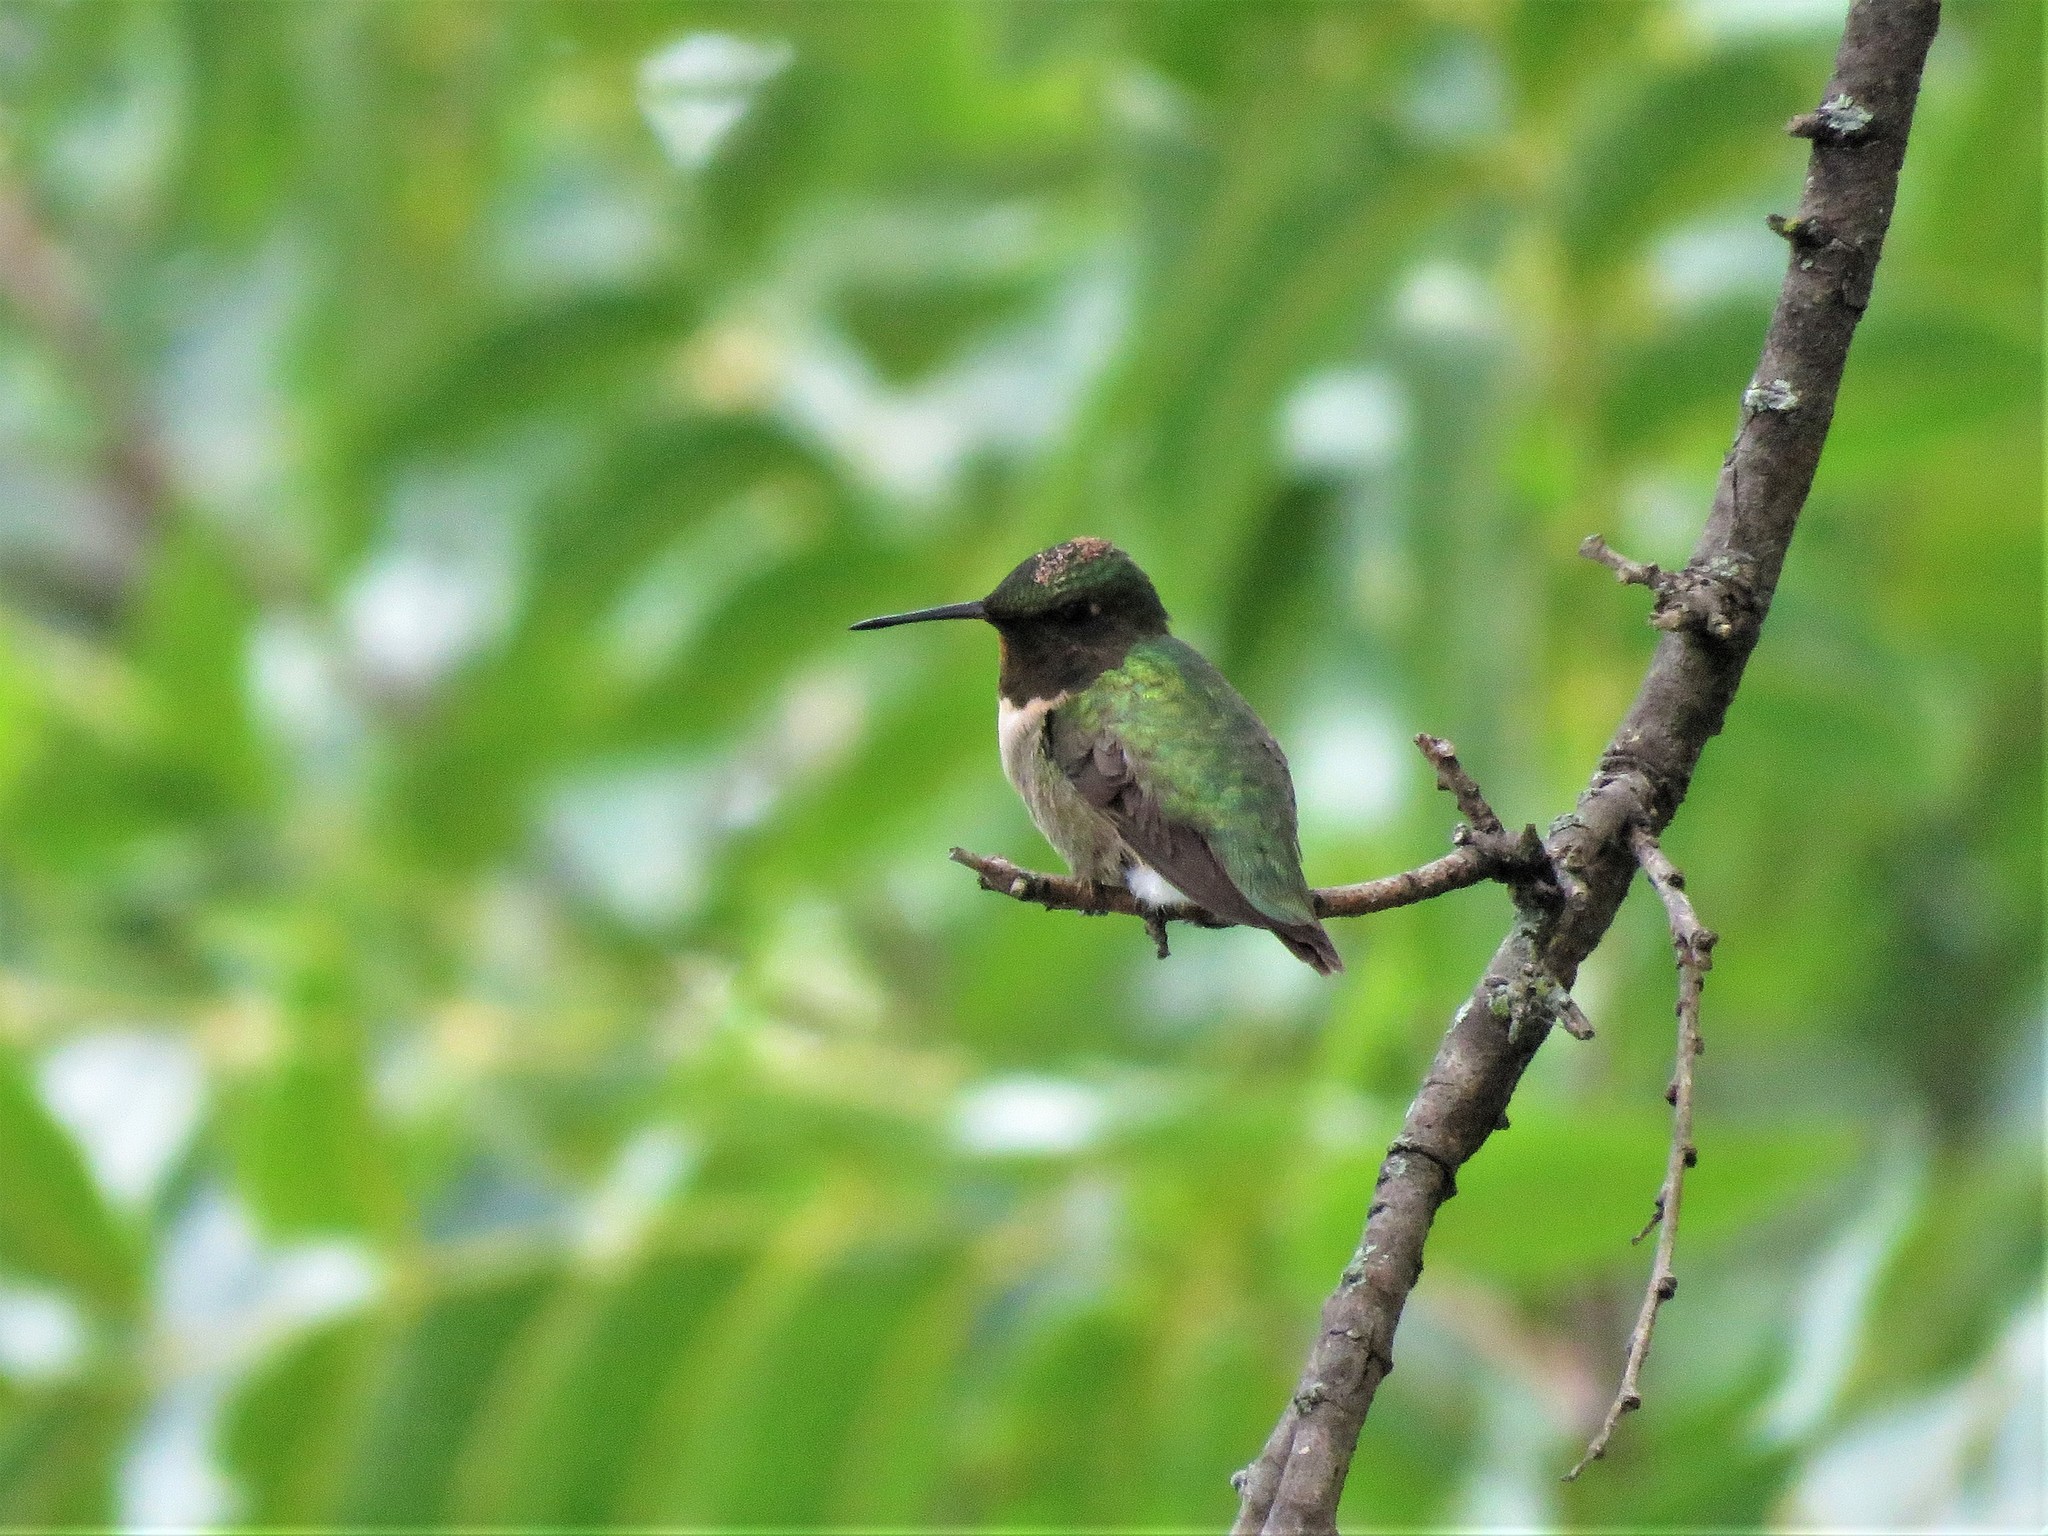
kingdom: Animalia
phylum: Chordata
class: Aves
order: Apodiformes
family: Trochilidae
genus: Archilochus
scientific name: Archilochus colubris
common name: Ruby-throated hummingbird
